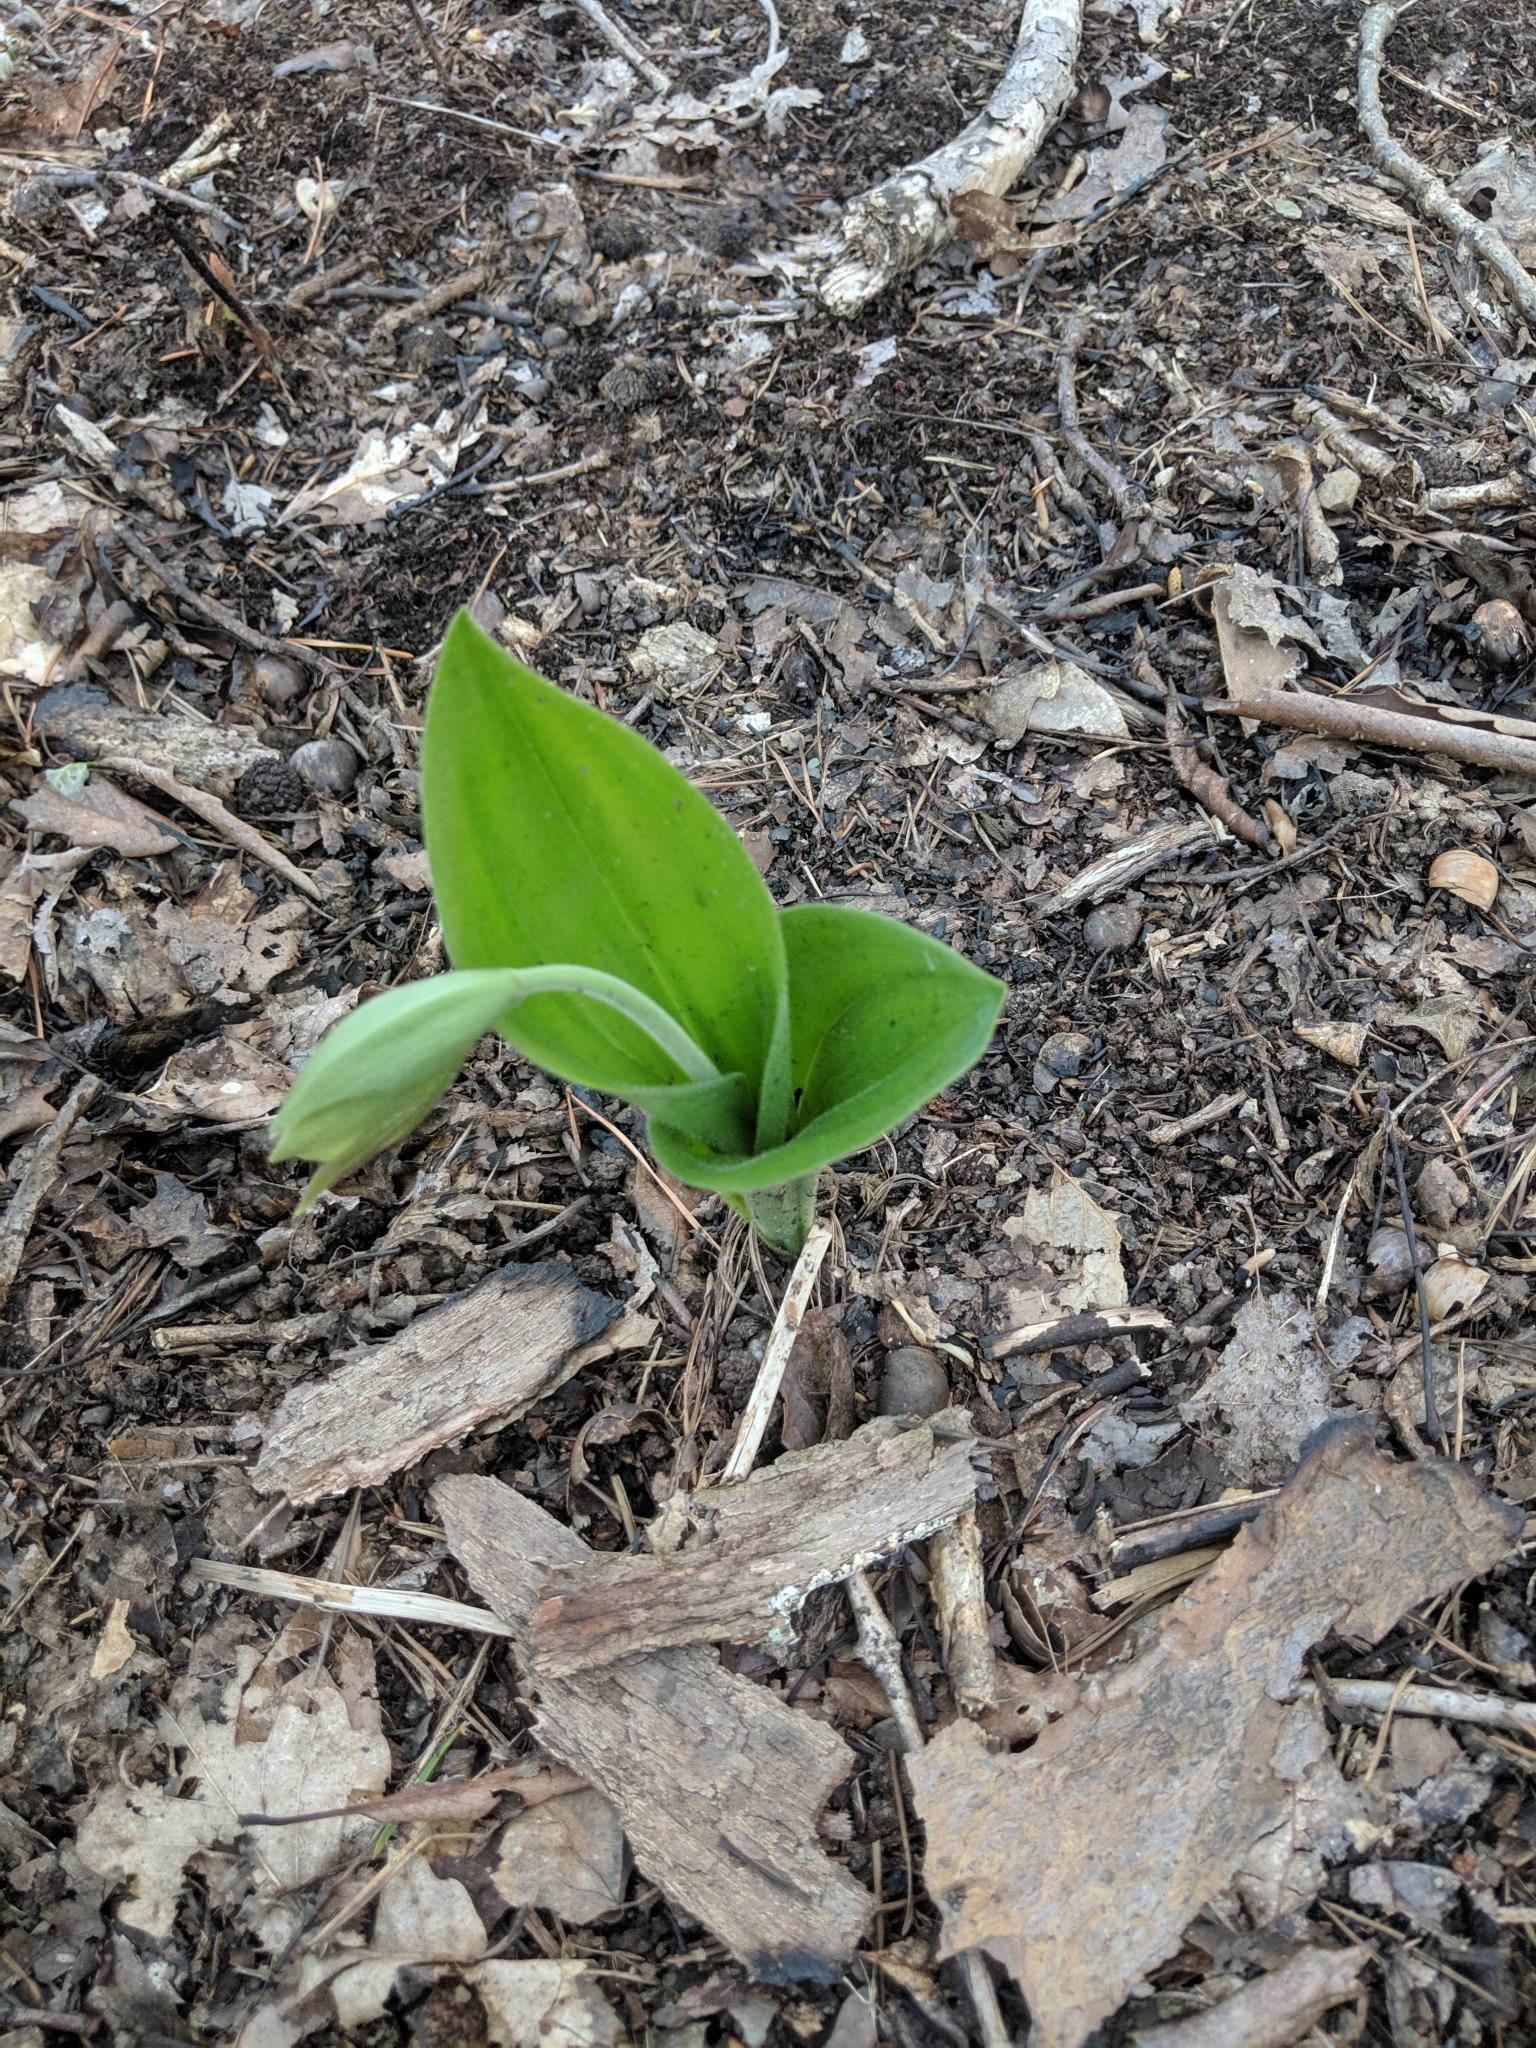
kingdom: Plantae
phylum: Tracheophyta
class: Liliopsida
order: Asparagales
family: Orchidaceae
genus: Cypripedium
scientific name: Cypripedium acaule
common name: Pink lady's-slipper
